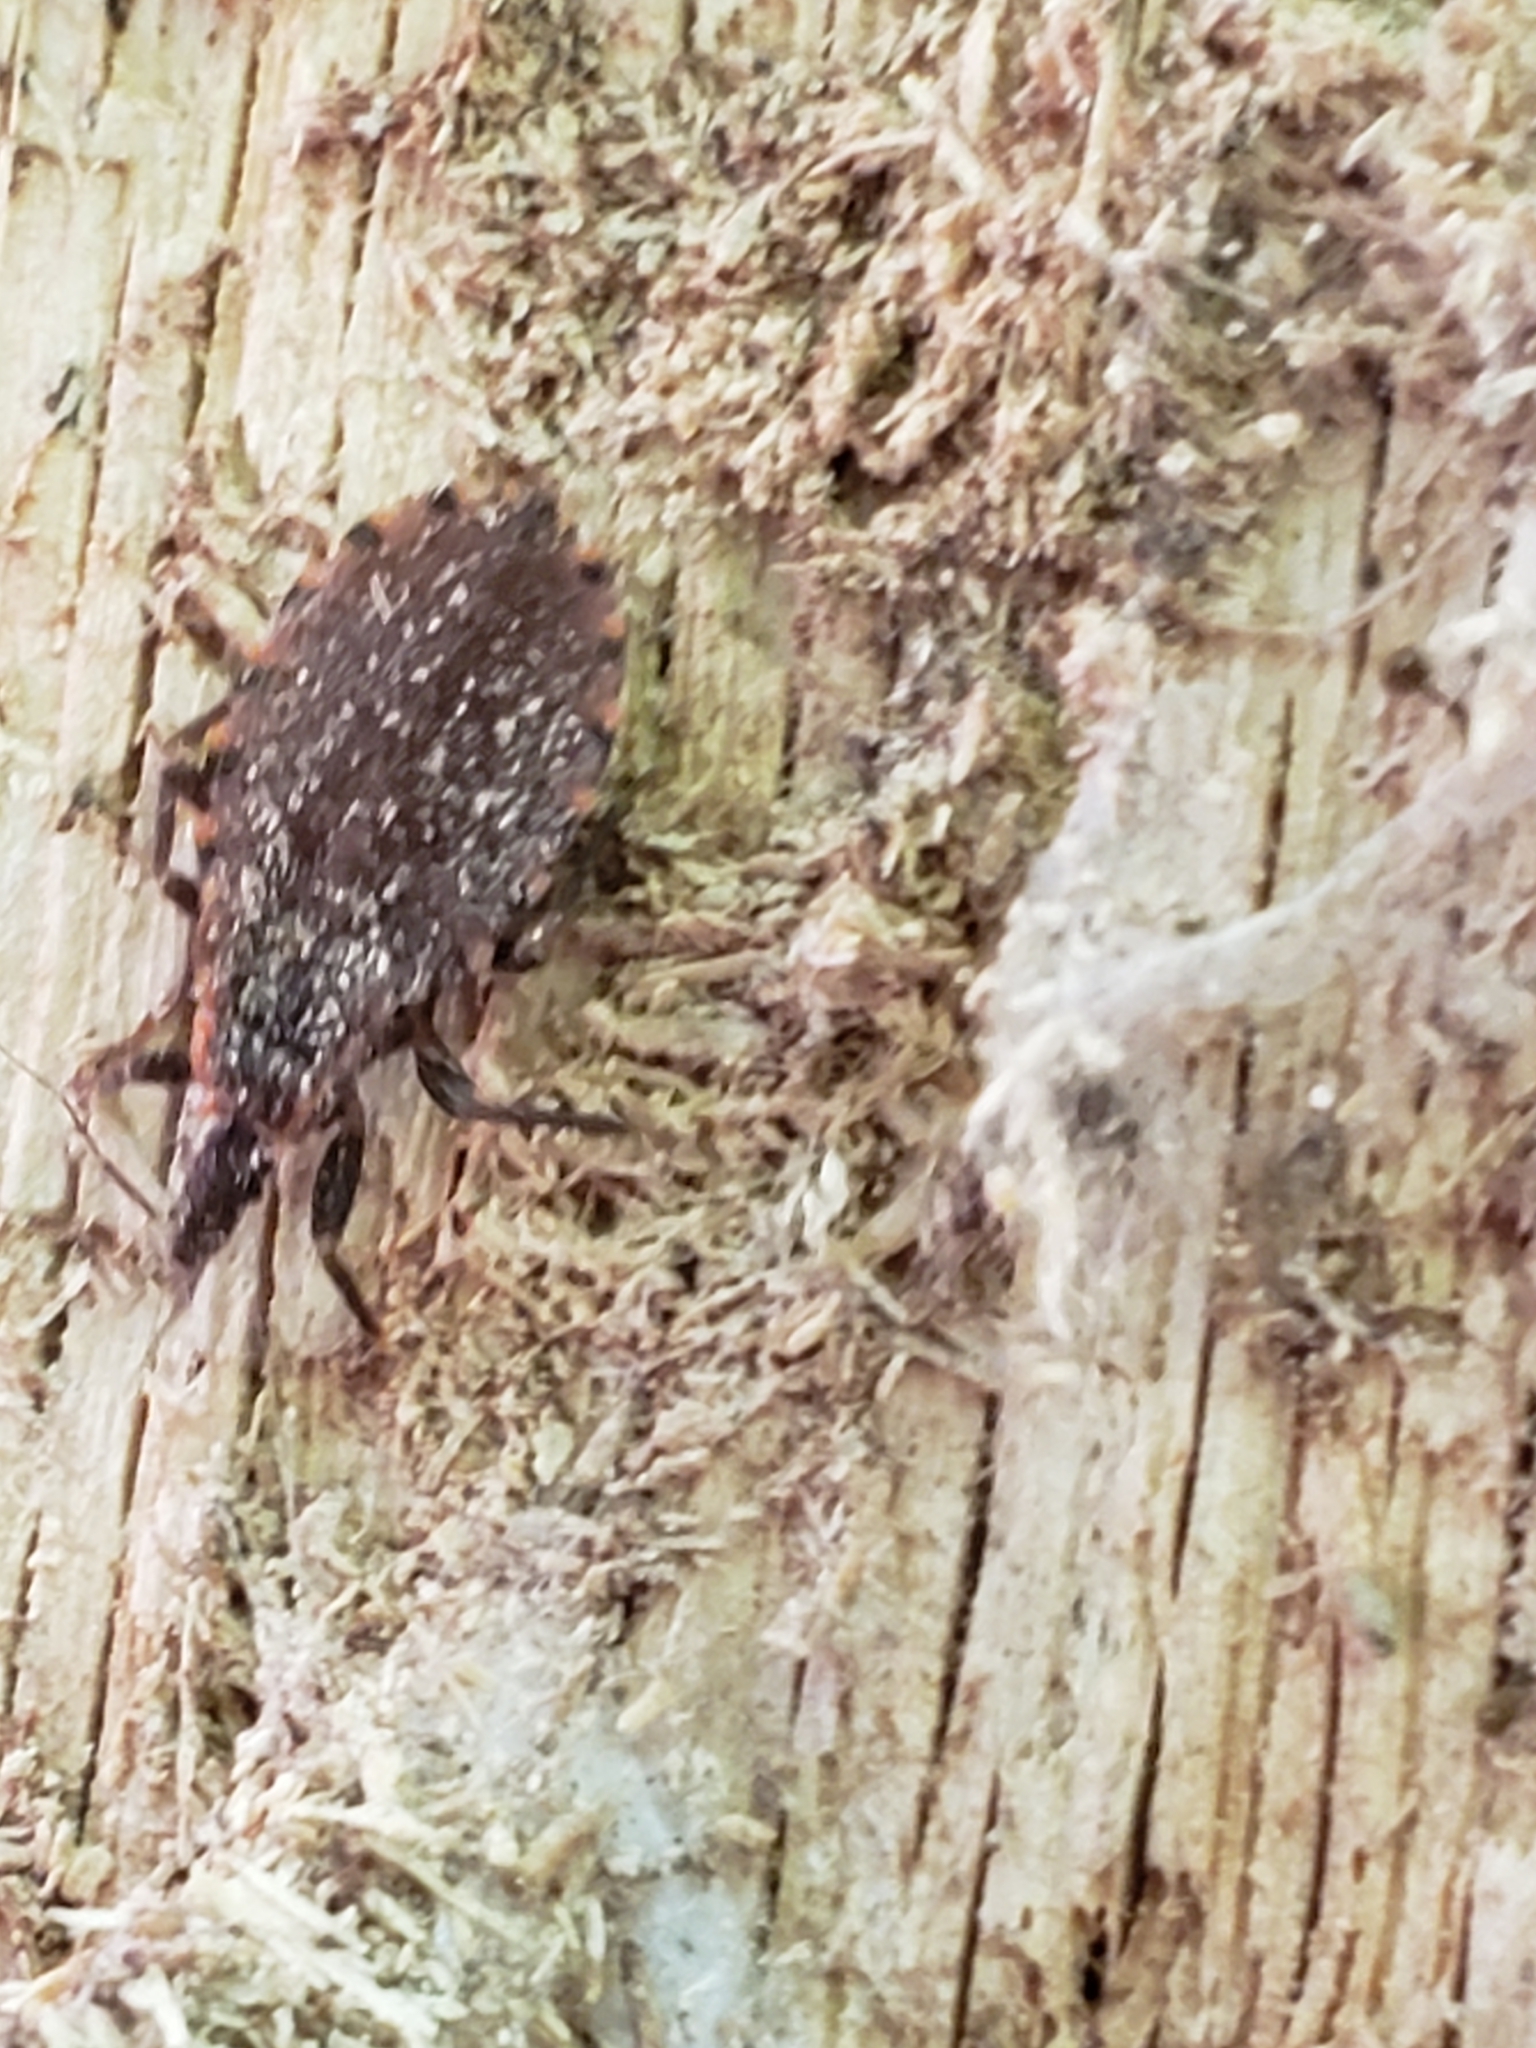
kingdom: Animalia
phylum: Arthropoda
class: Insecta
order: Hemiptera
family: Reduviidae
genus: Triatoma
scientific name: Triatoma sanguisuga
